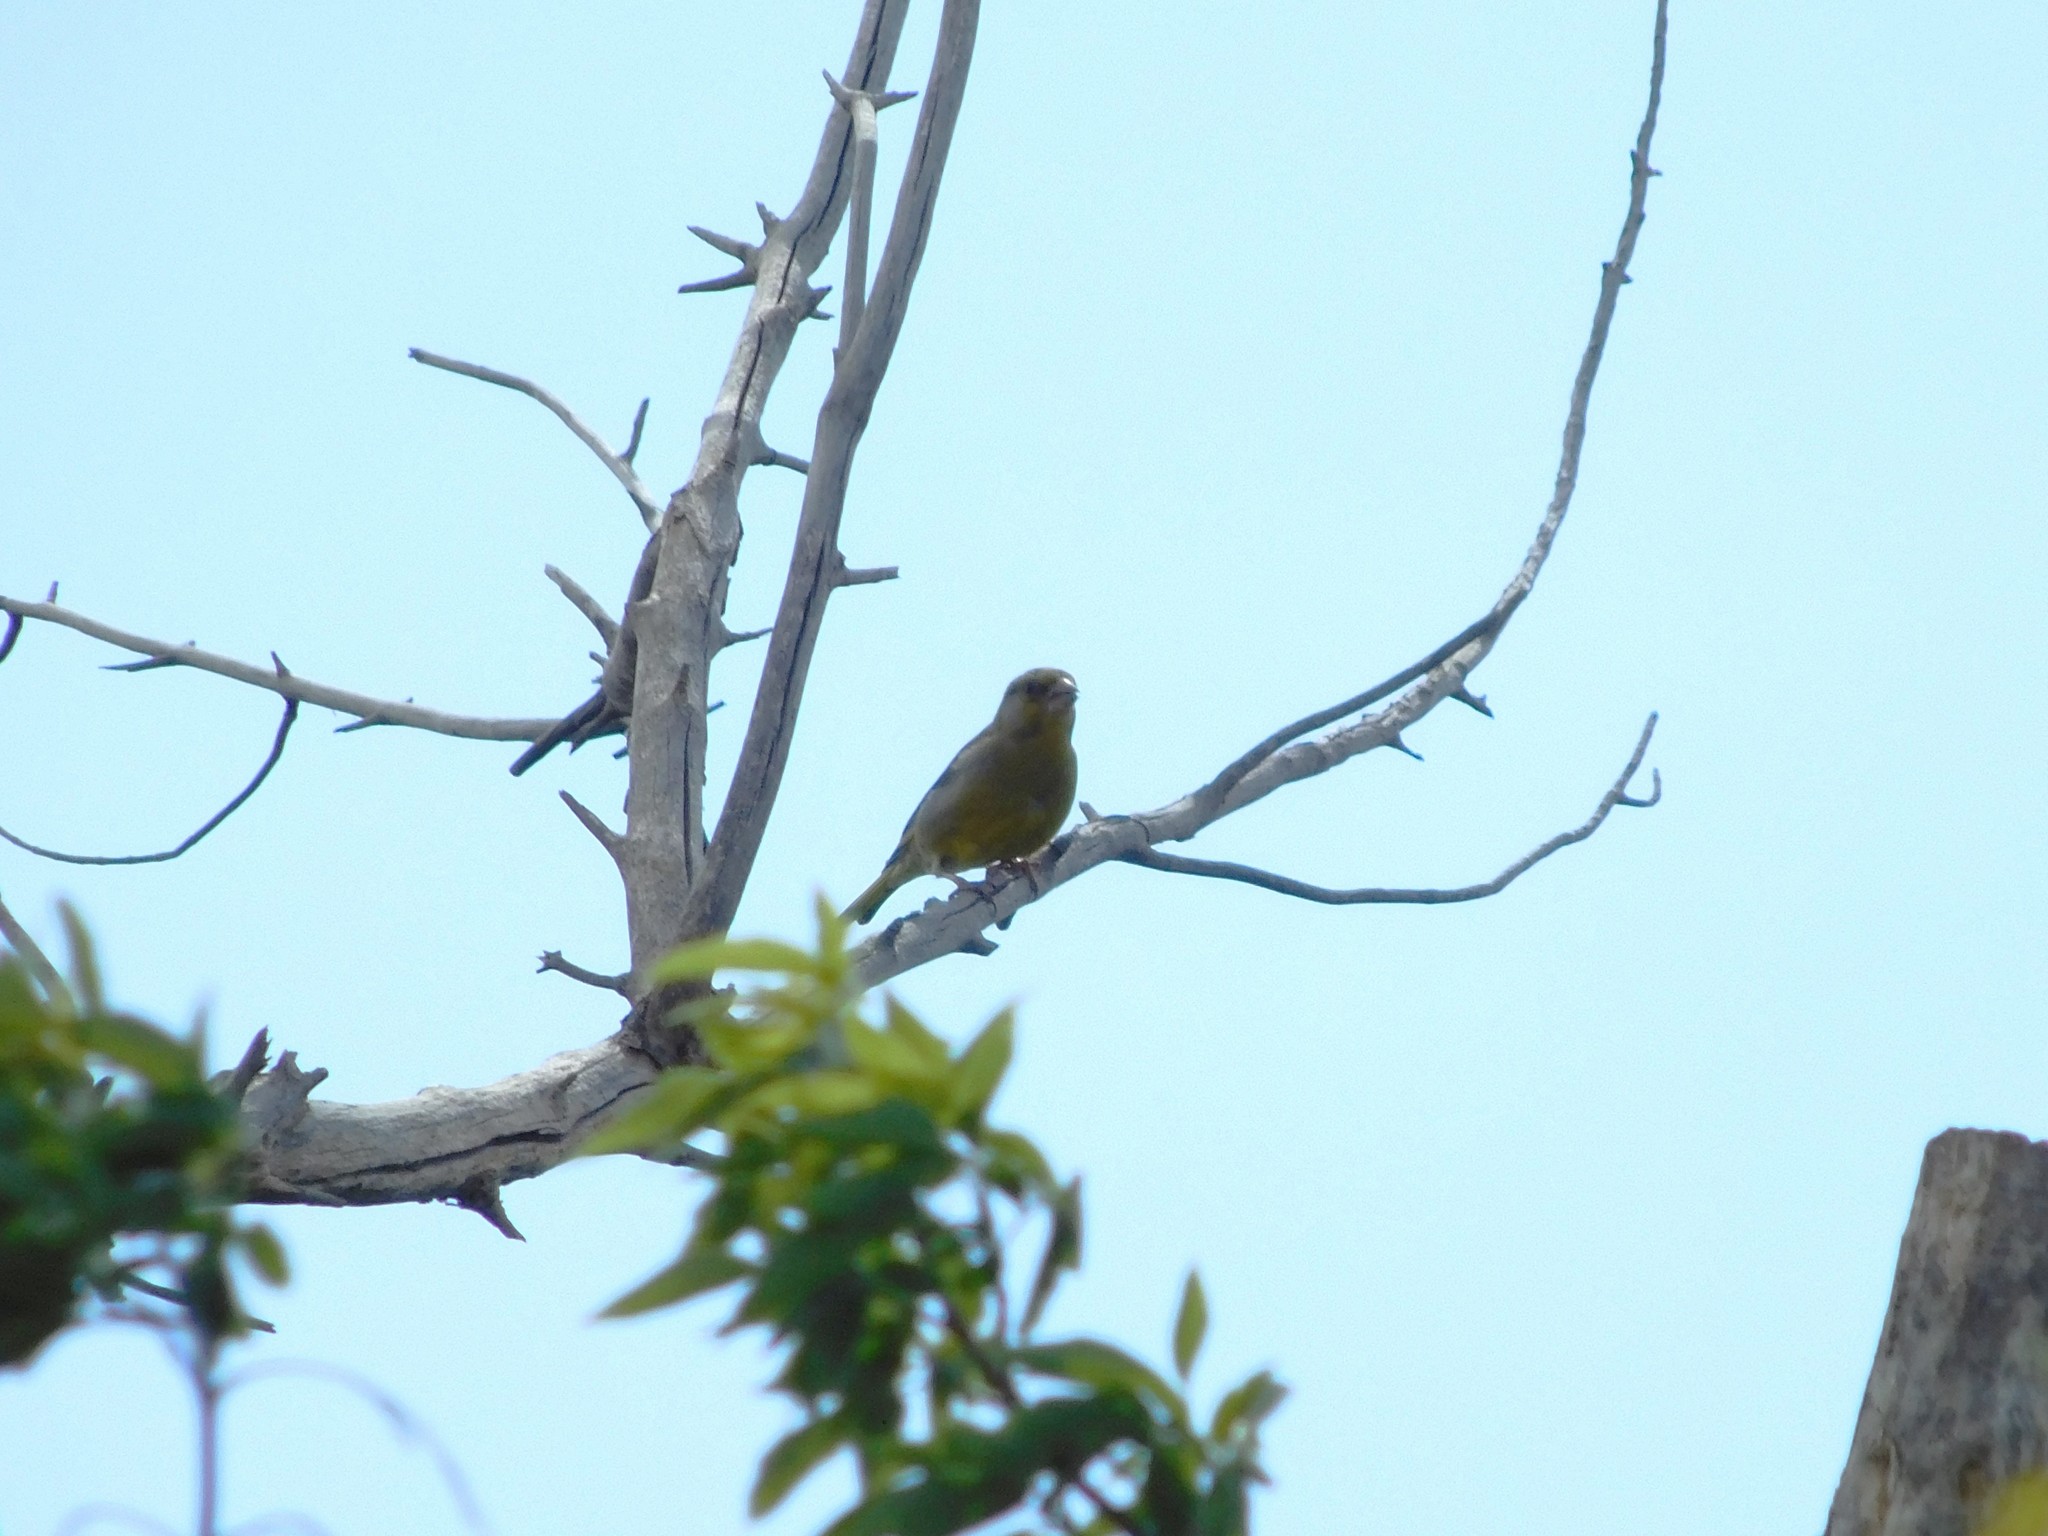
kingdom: Plantae
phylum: Tracheophyta
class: Liliopsida
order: Poales
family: Poaceae
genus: Chloris
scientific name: Chloris chloris
